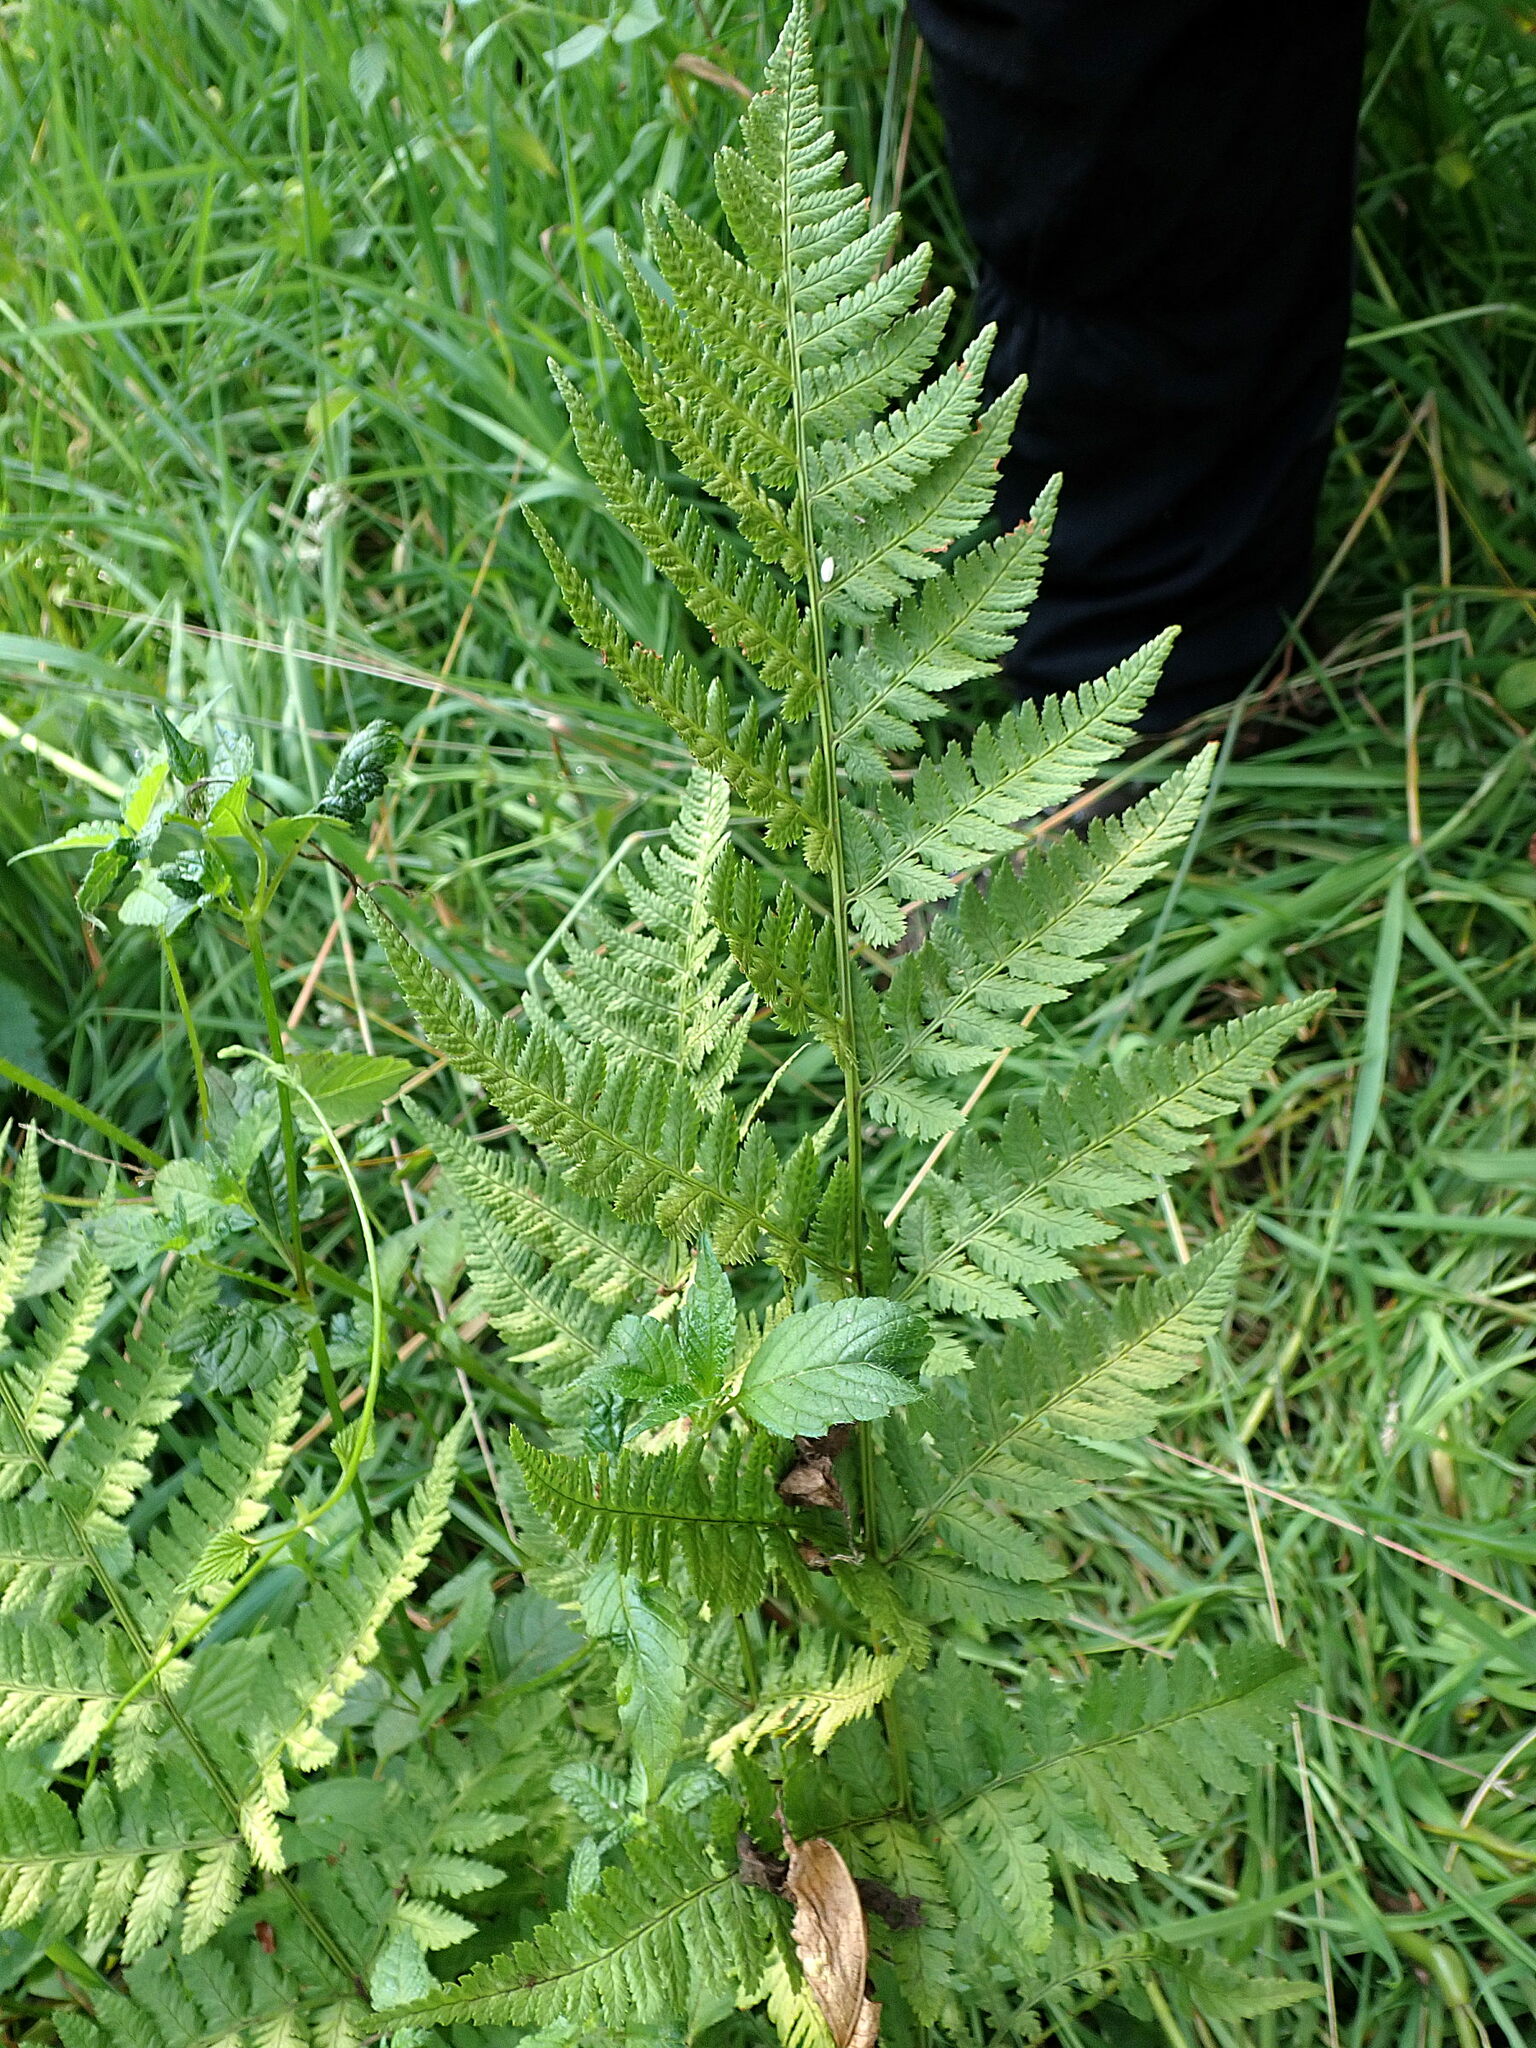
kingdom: Plantae
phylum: Tracheophyta
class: Polypodiopsida
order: Polypodiales
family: Dryopteridaceae
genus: Dryopteris
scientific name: Dryopteris carthusiana
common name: Narrow buckler-fern
